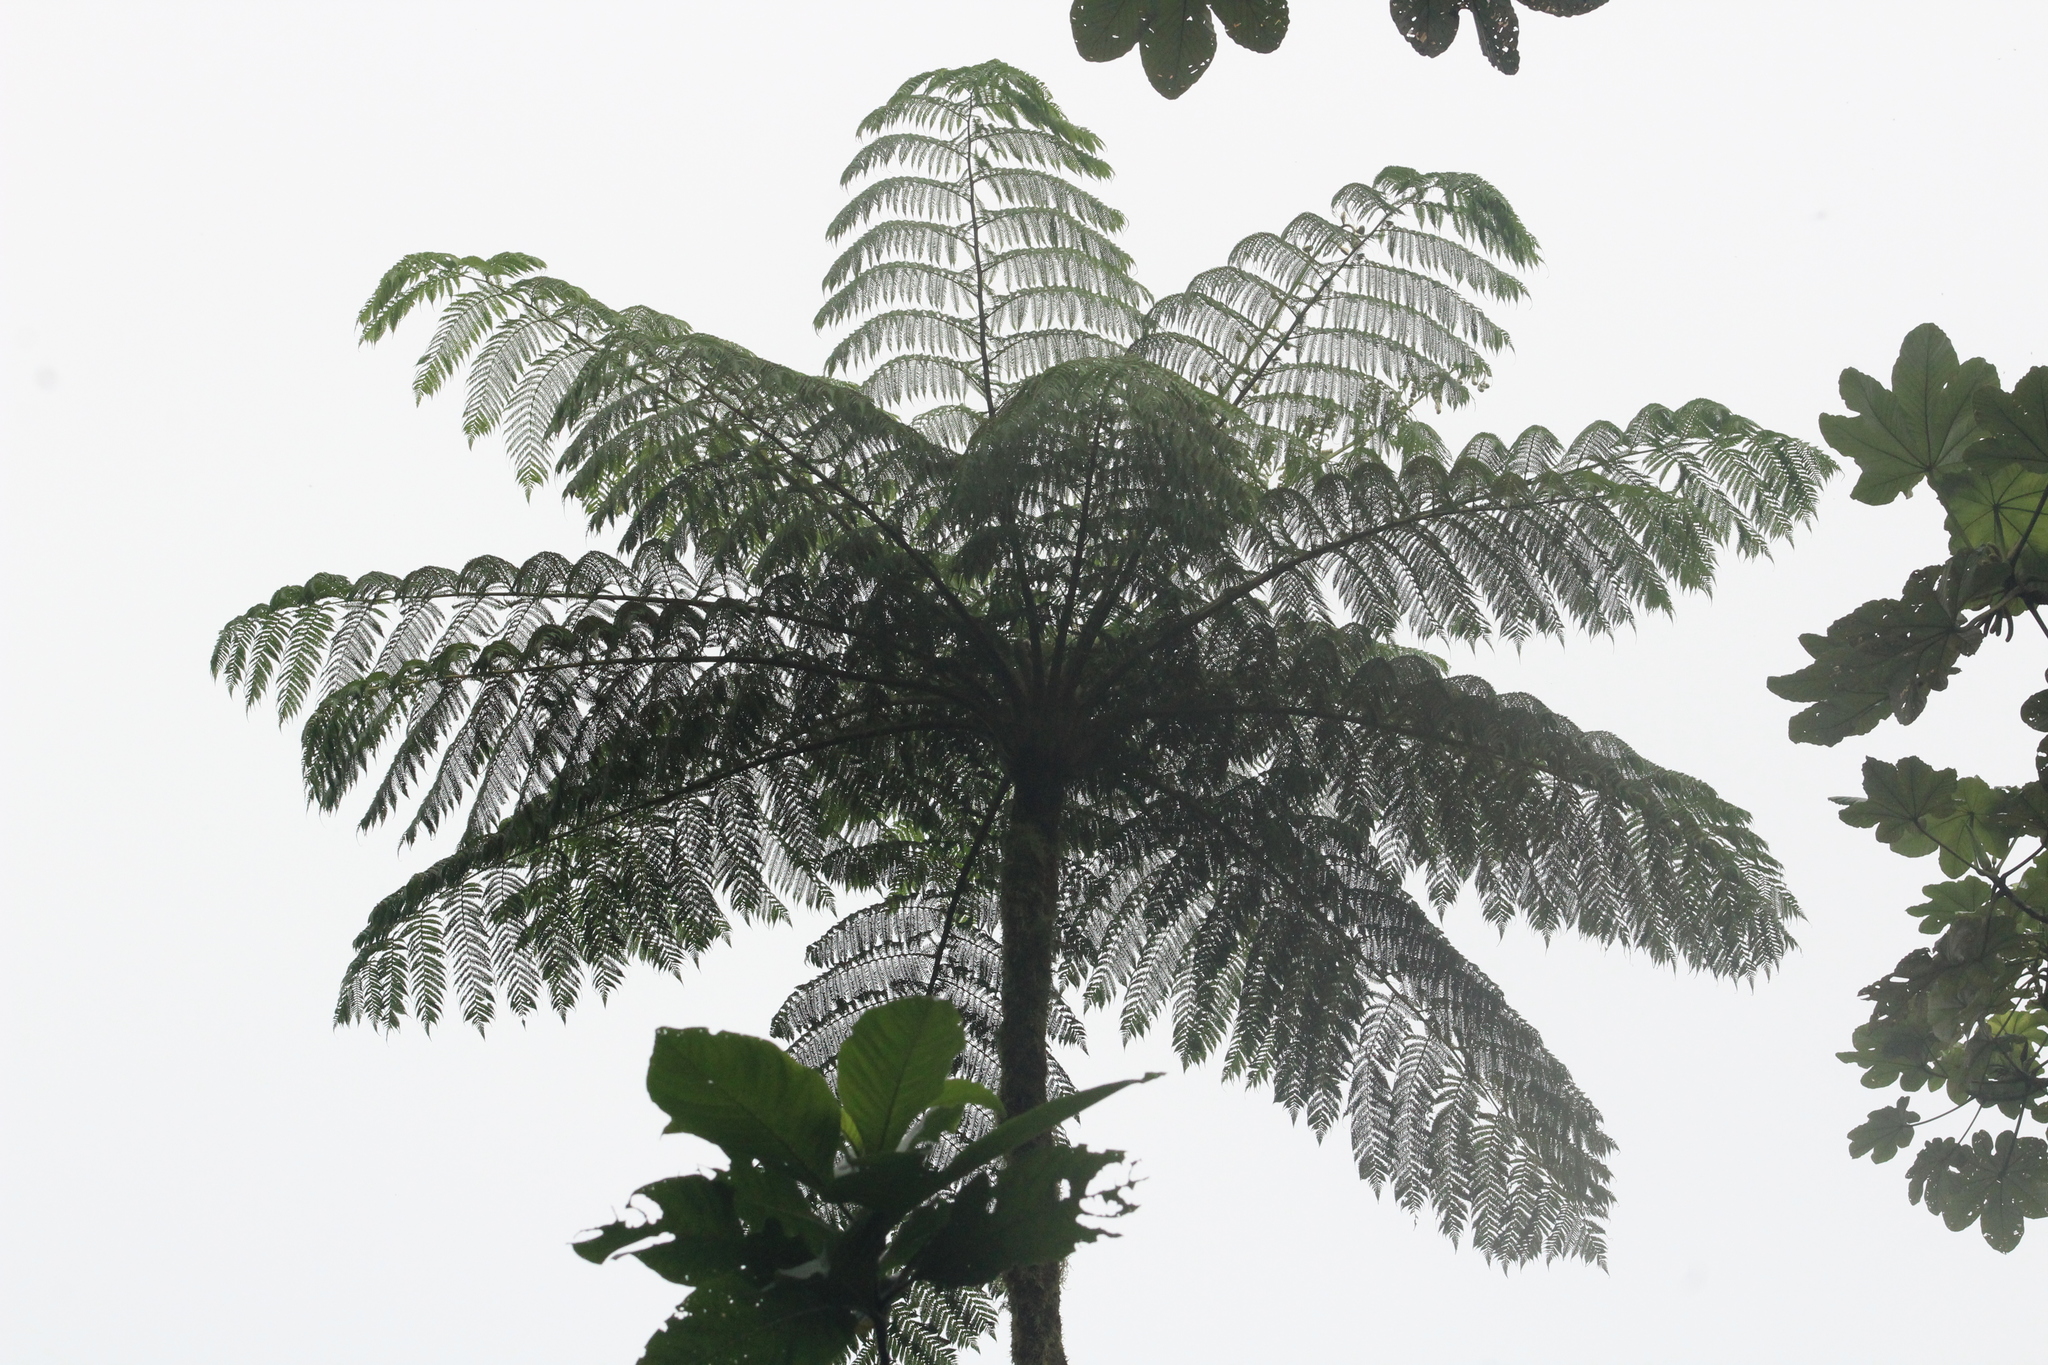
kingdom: Plantae
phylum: Tracheophyta
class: Polypodiopsida
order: Cyatheales
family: Cyatheaceae
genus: Cyathea
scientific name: Cyathea arborea
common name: West indian treefern
